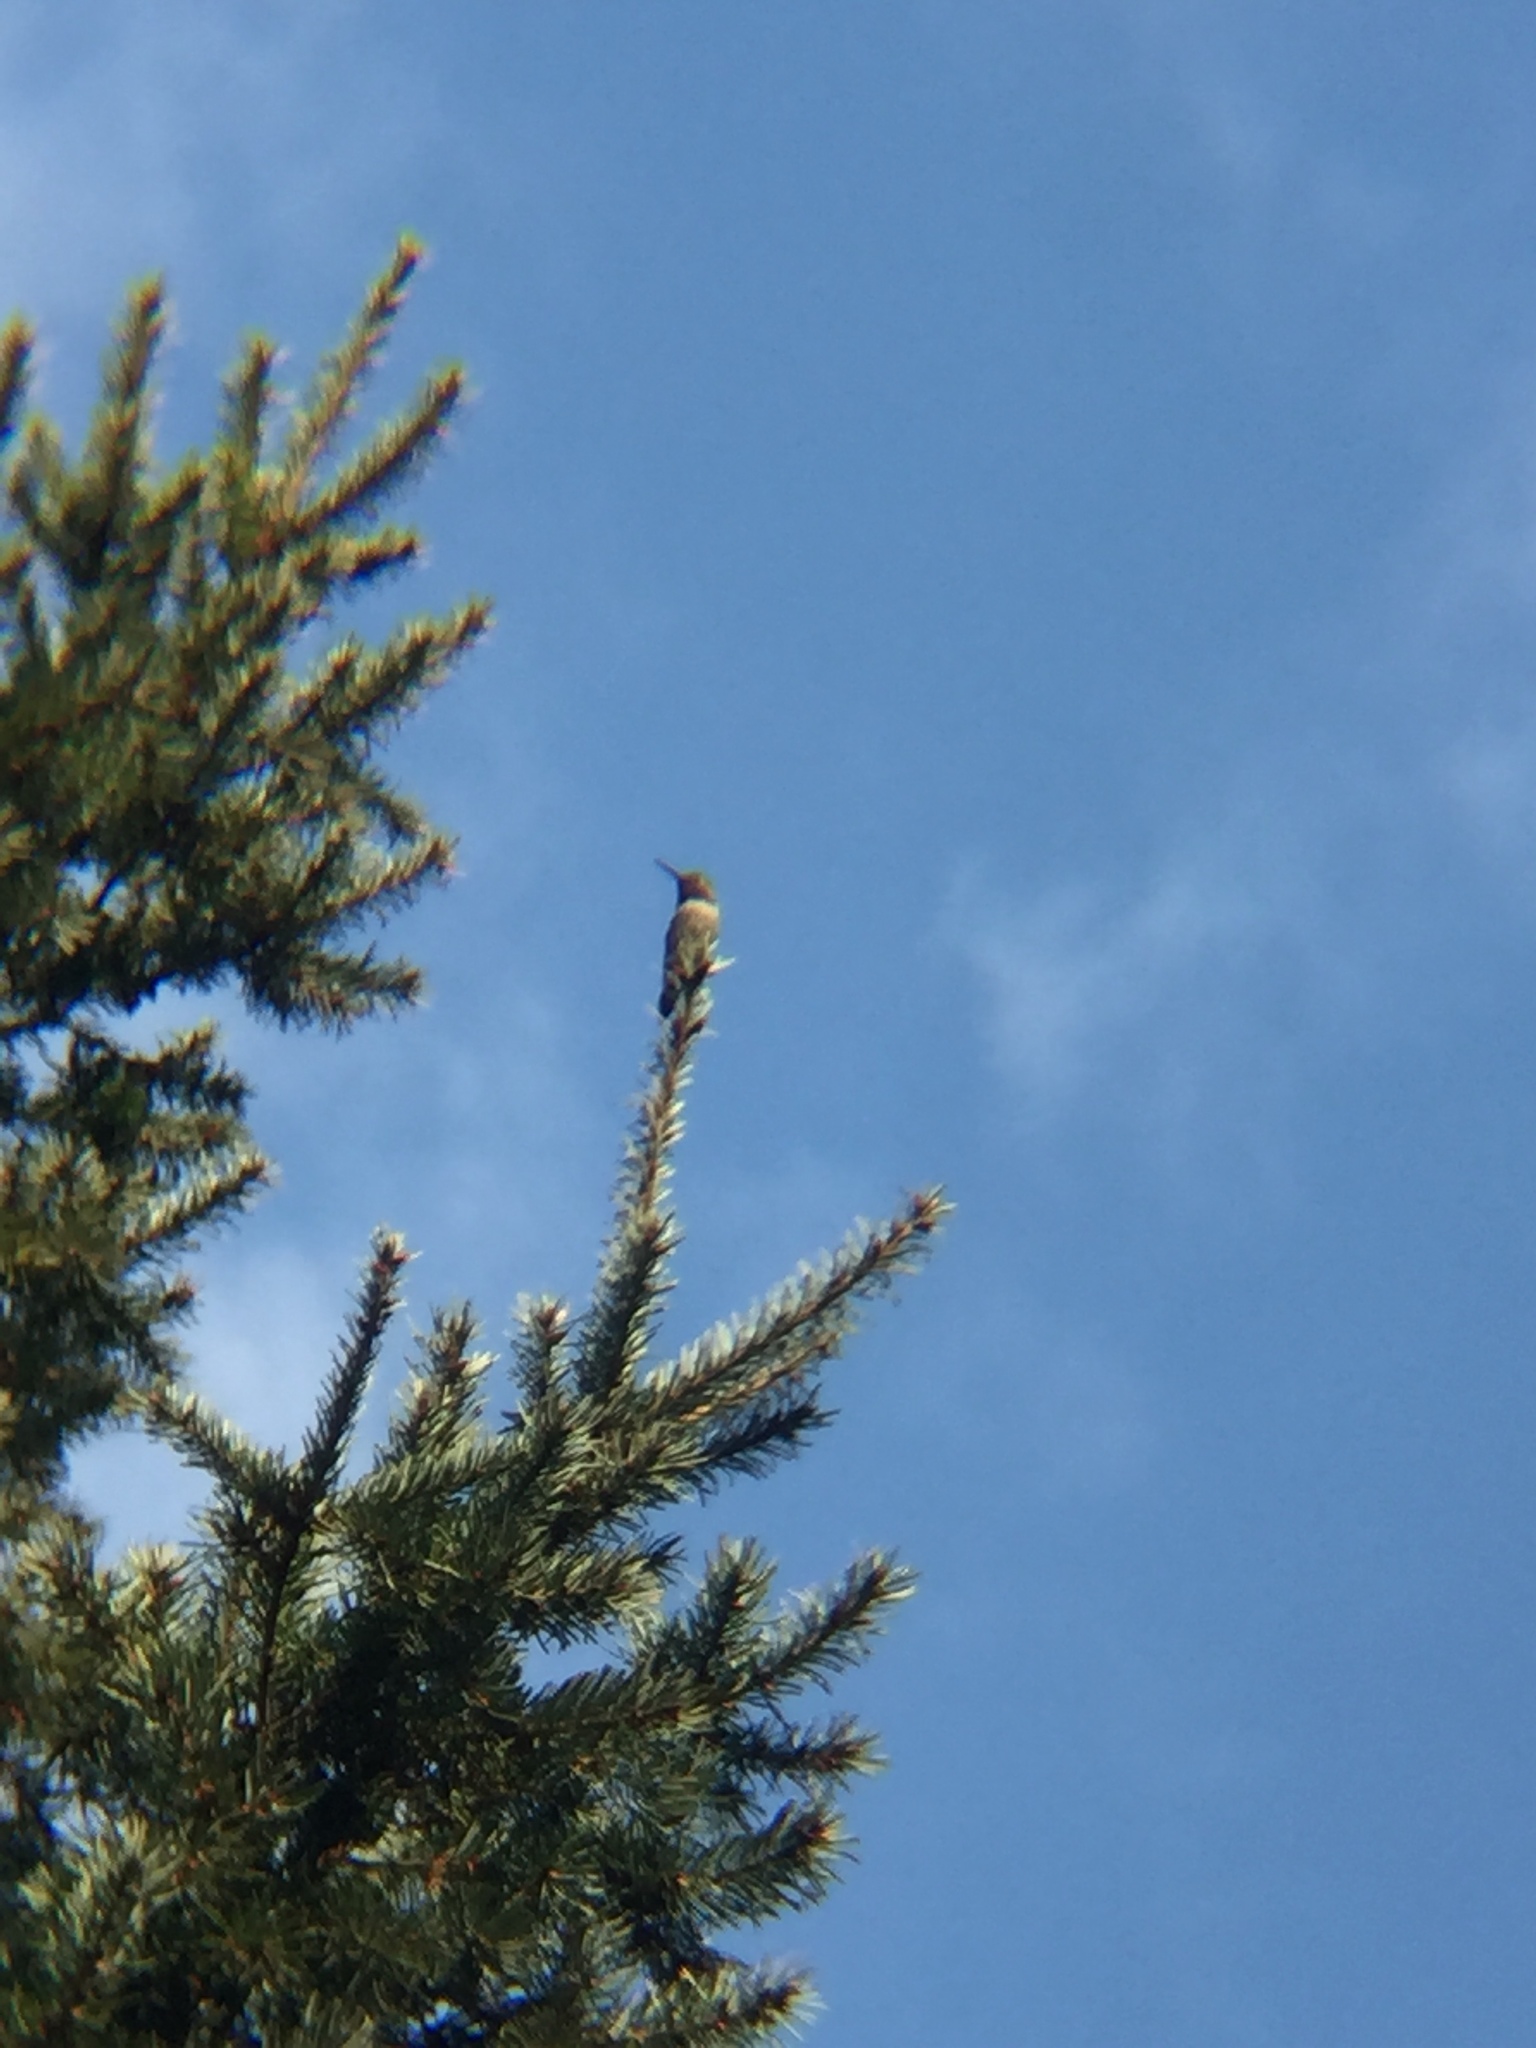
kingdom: Animalia
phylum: Chordata
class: Aves
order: Apodiformes
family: Trochilidae
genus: Calypte
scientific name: Calypte anna
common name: Anna's hummingbird
